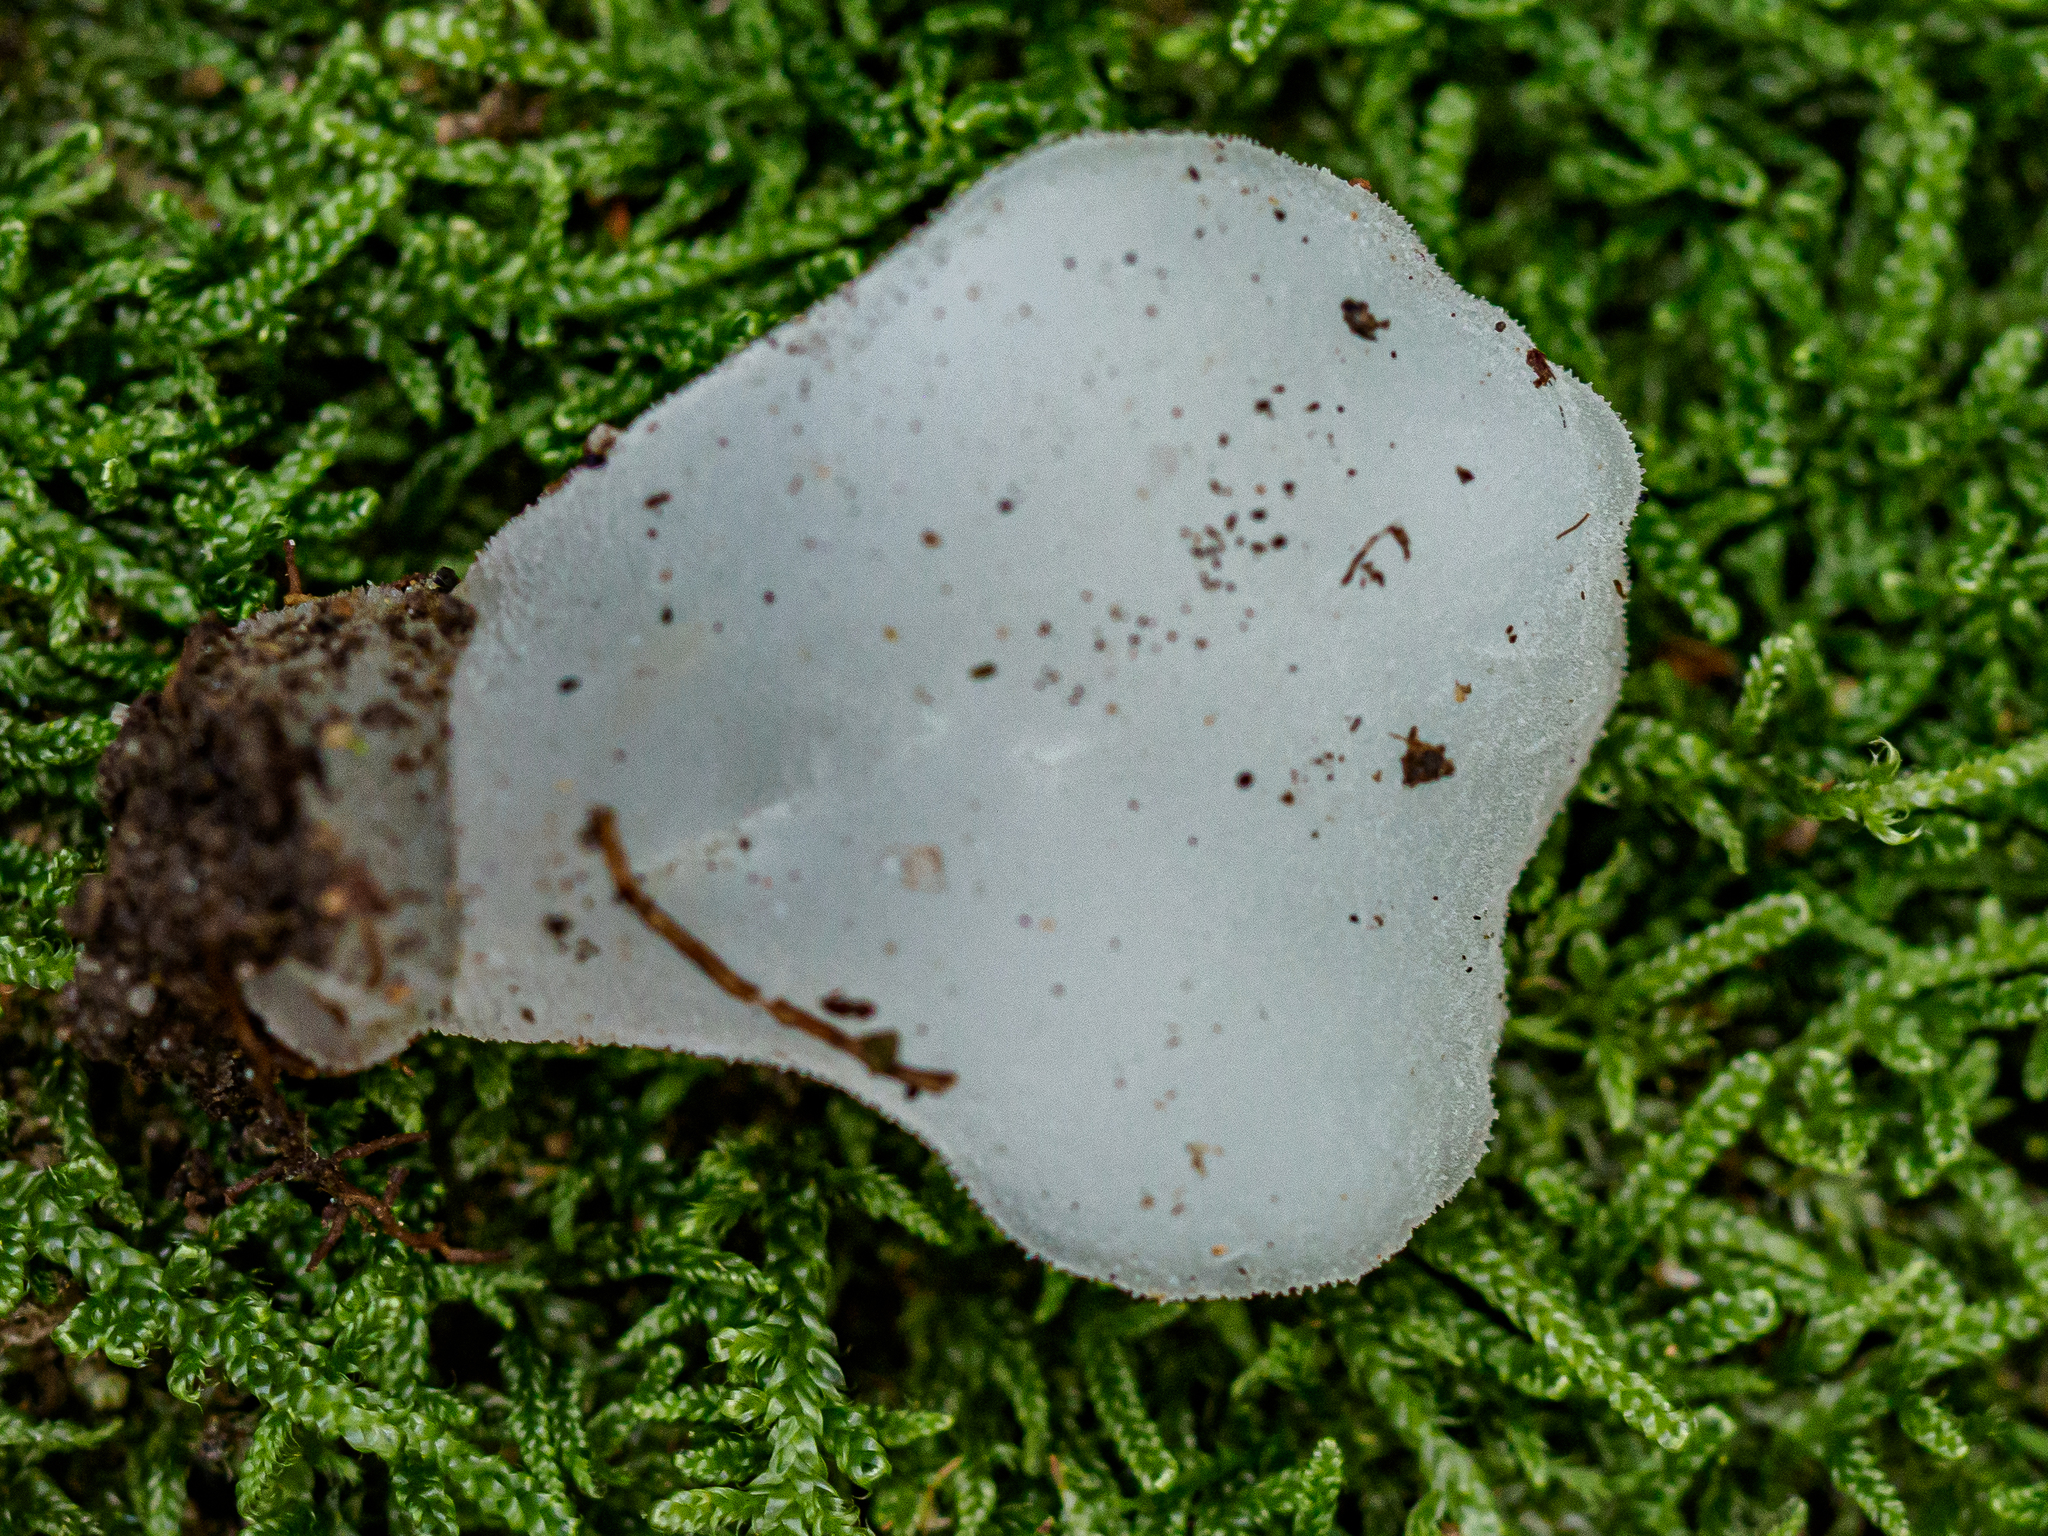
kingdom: Fungi
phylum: Basidiomycota
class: Agaricomycetes
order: Auriculariales
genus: Pseudohydnum
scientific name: Pseudohydnum gelatinosum
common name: Jelly tongue
